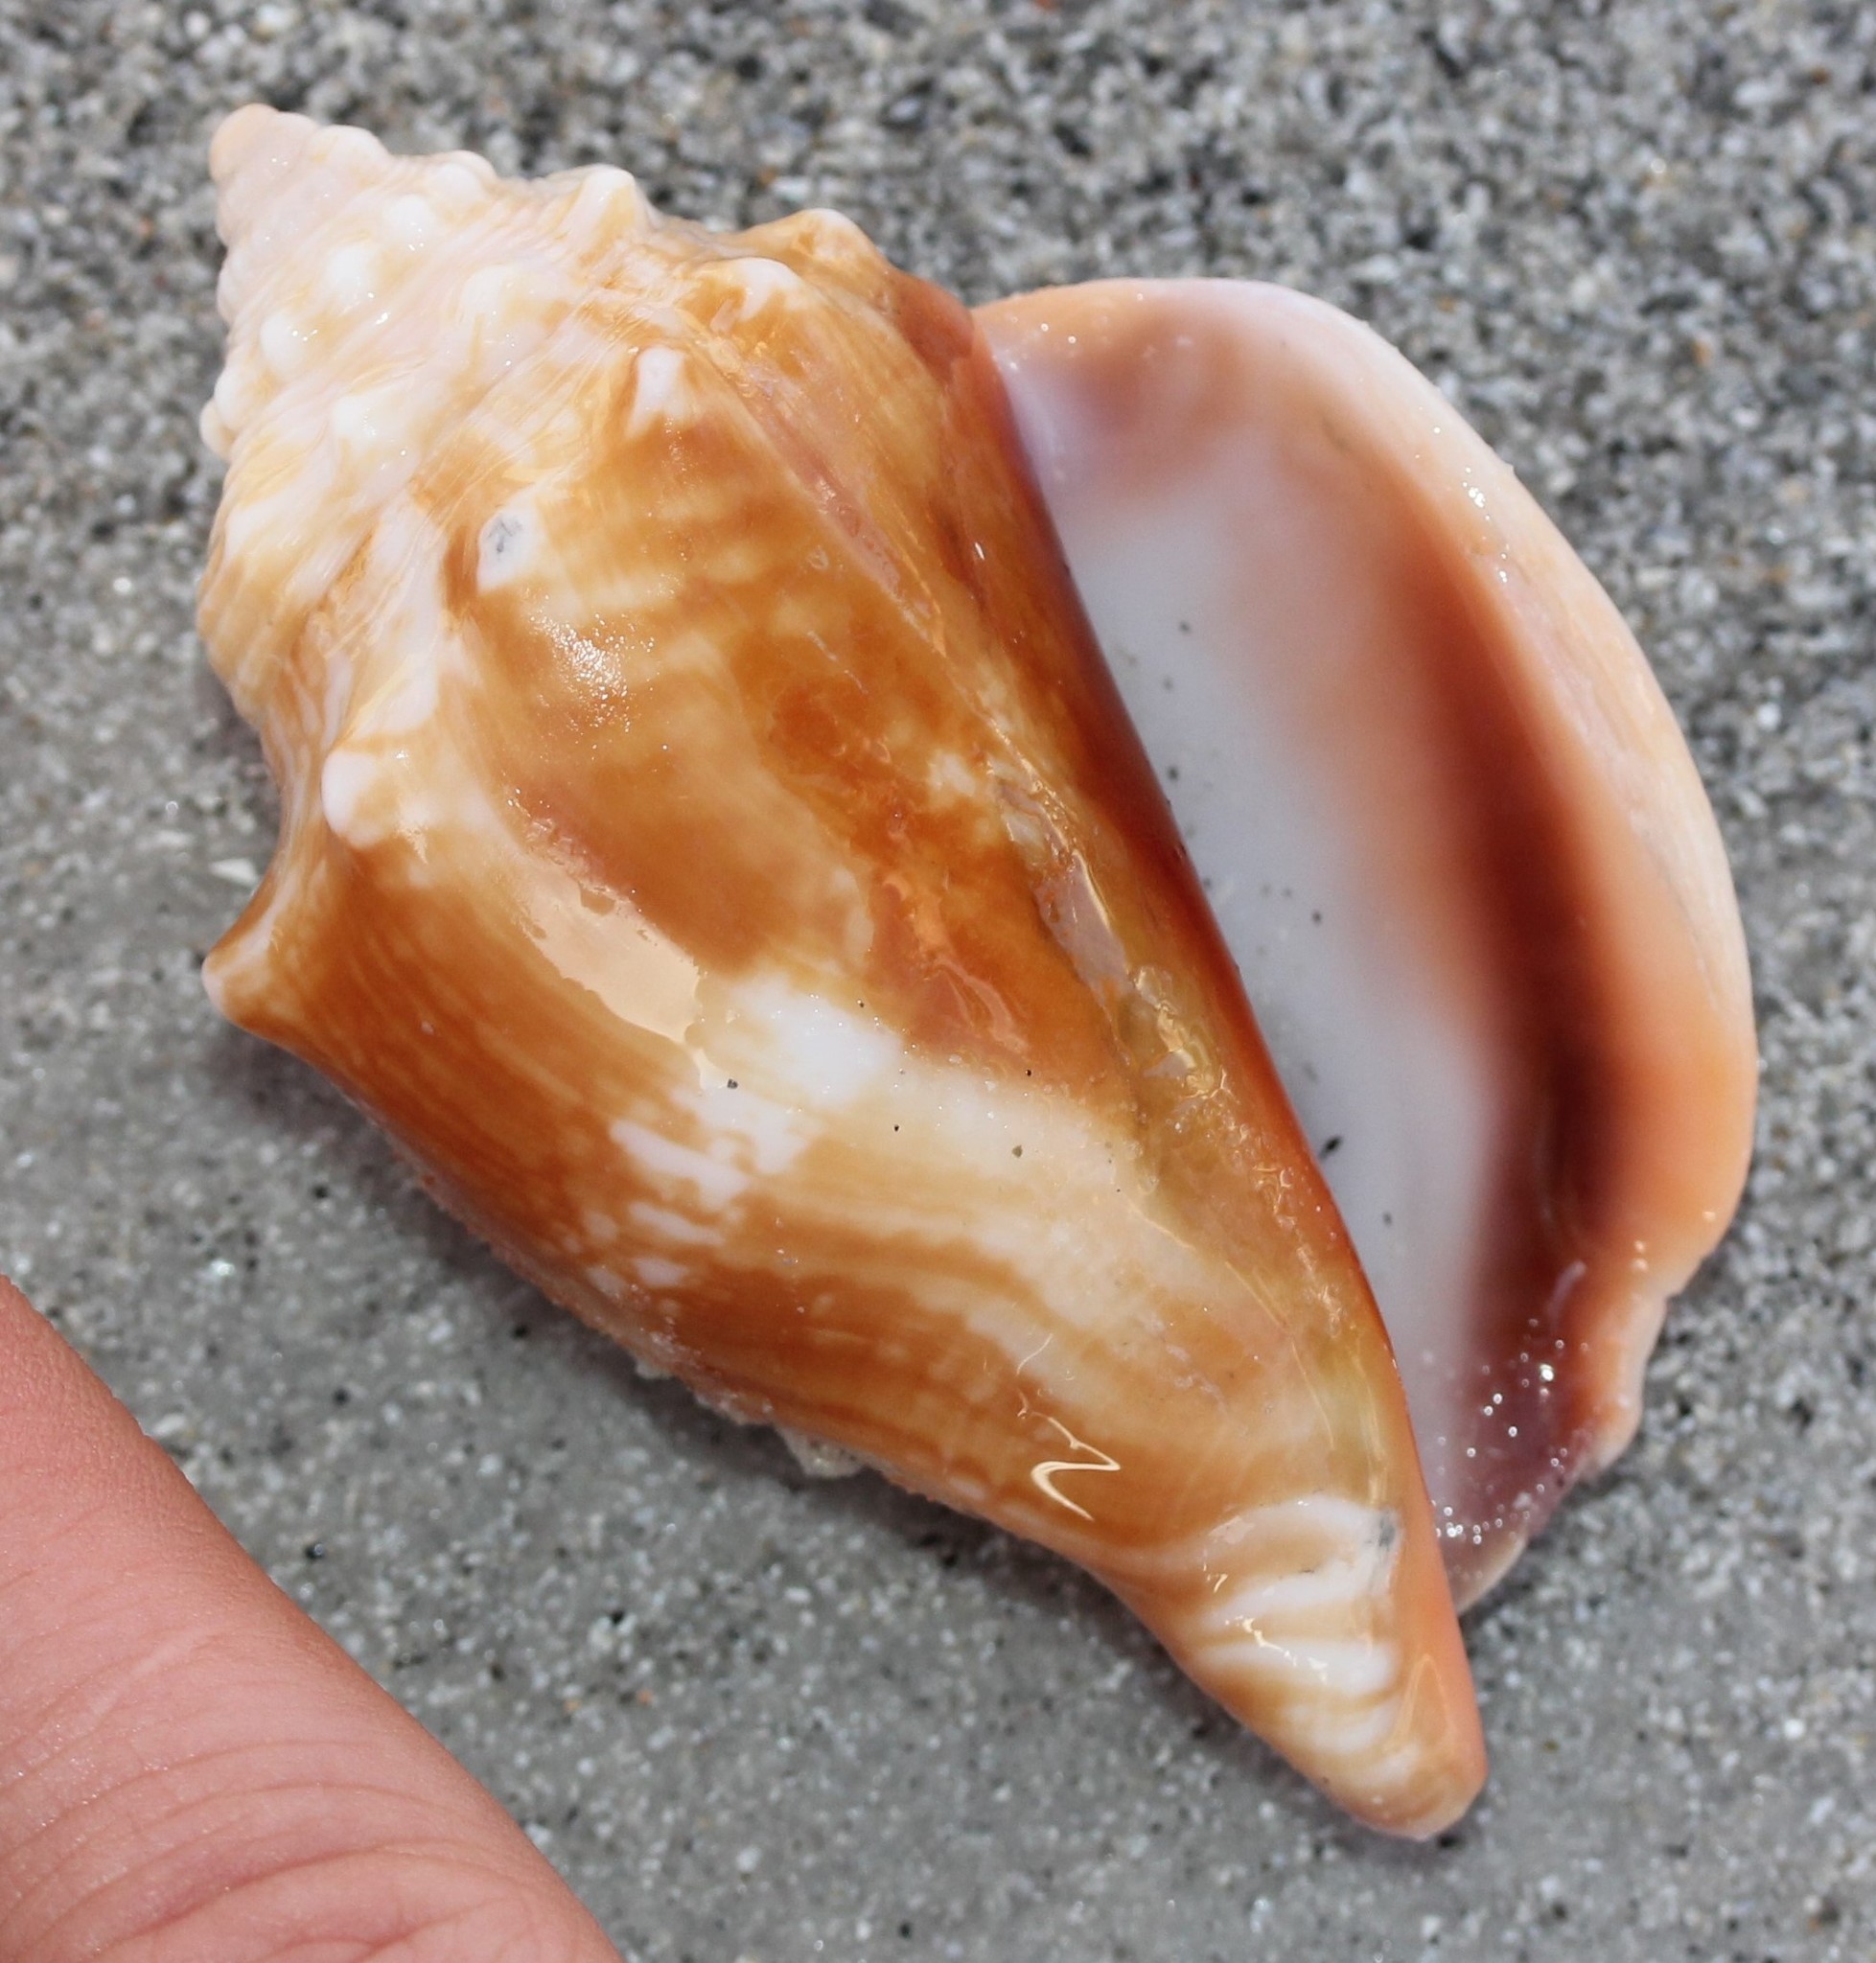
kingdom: Animalia
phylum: Mollusca
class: Gastropoda
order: Littorinimorpha
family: Strombidae
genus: Strombus
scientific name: Strombus alatus
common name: Florida fighting conch
